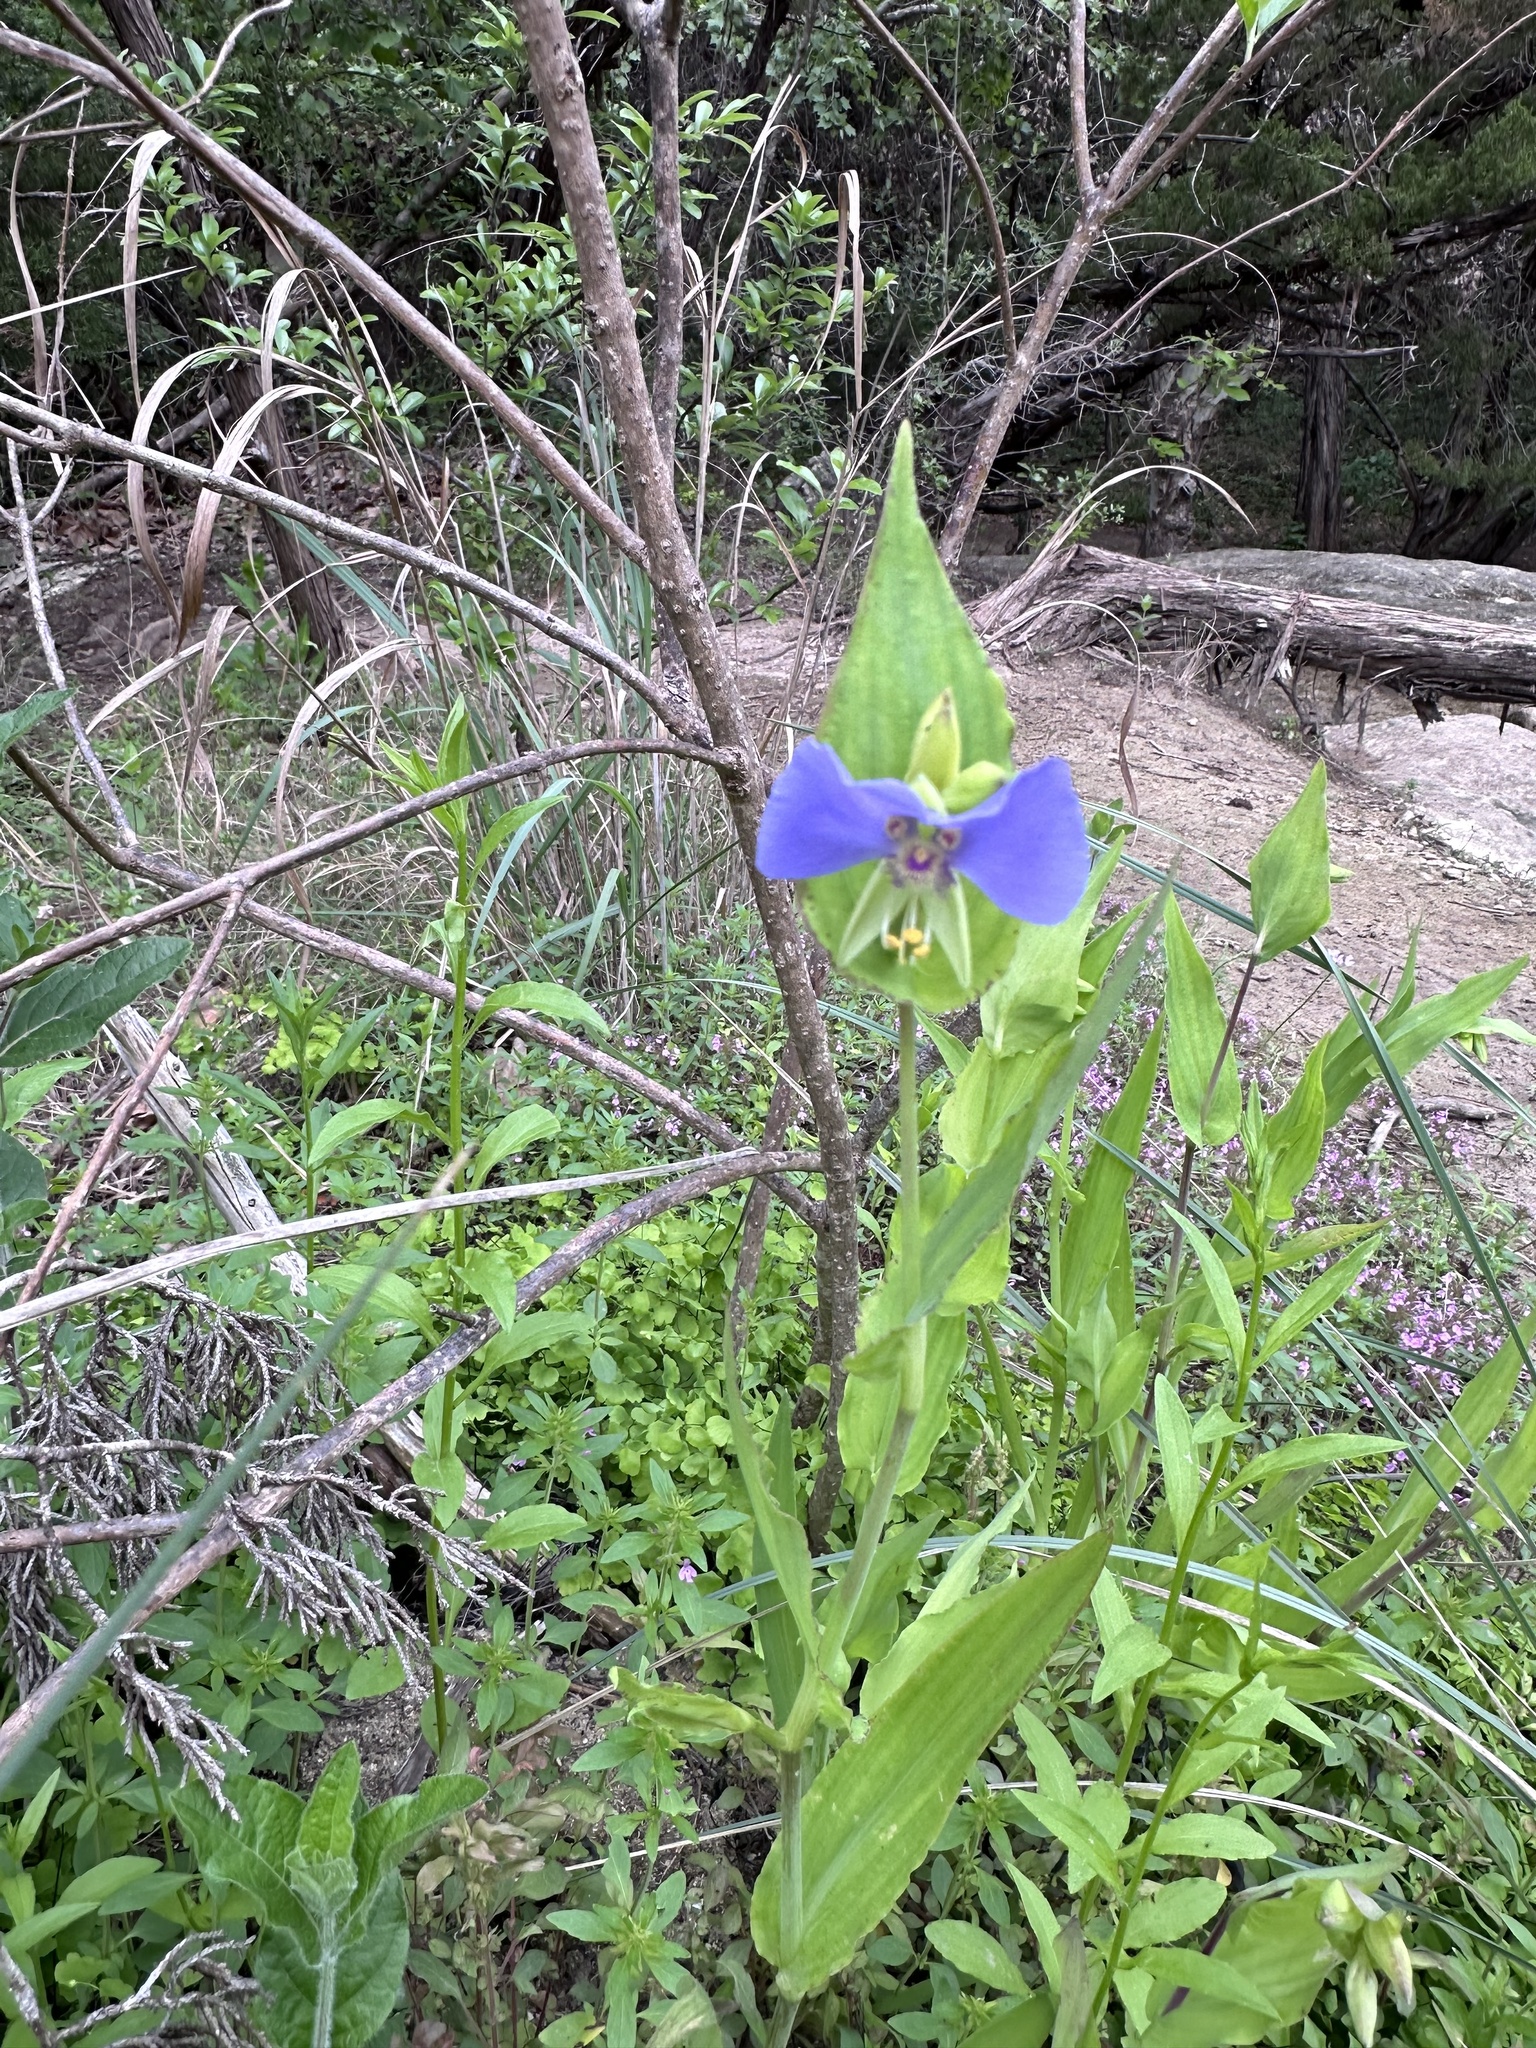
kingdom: Plantae
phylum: Tracheophyta
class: Liliopsida
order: Commelinales
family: Commelinaceae
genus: Tinantia
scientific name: Tinantia anomala
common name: False dayflower
